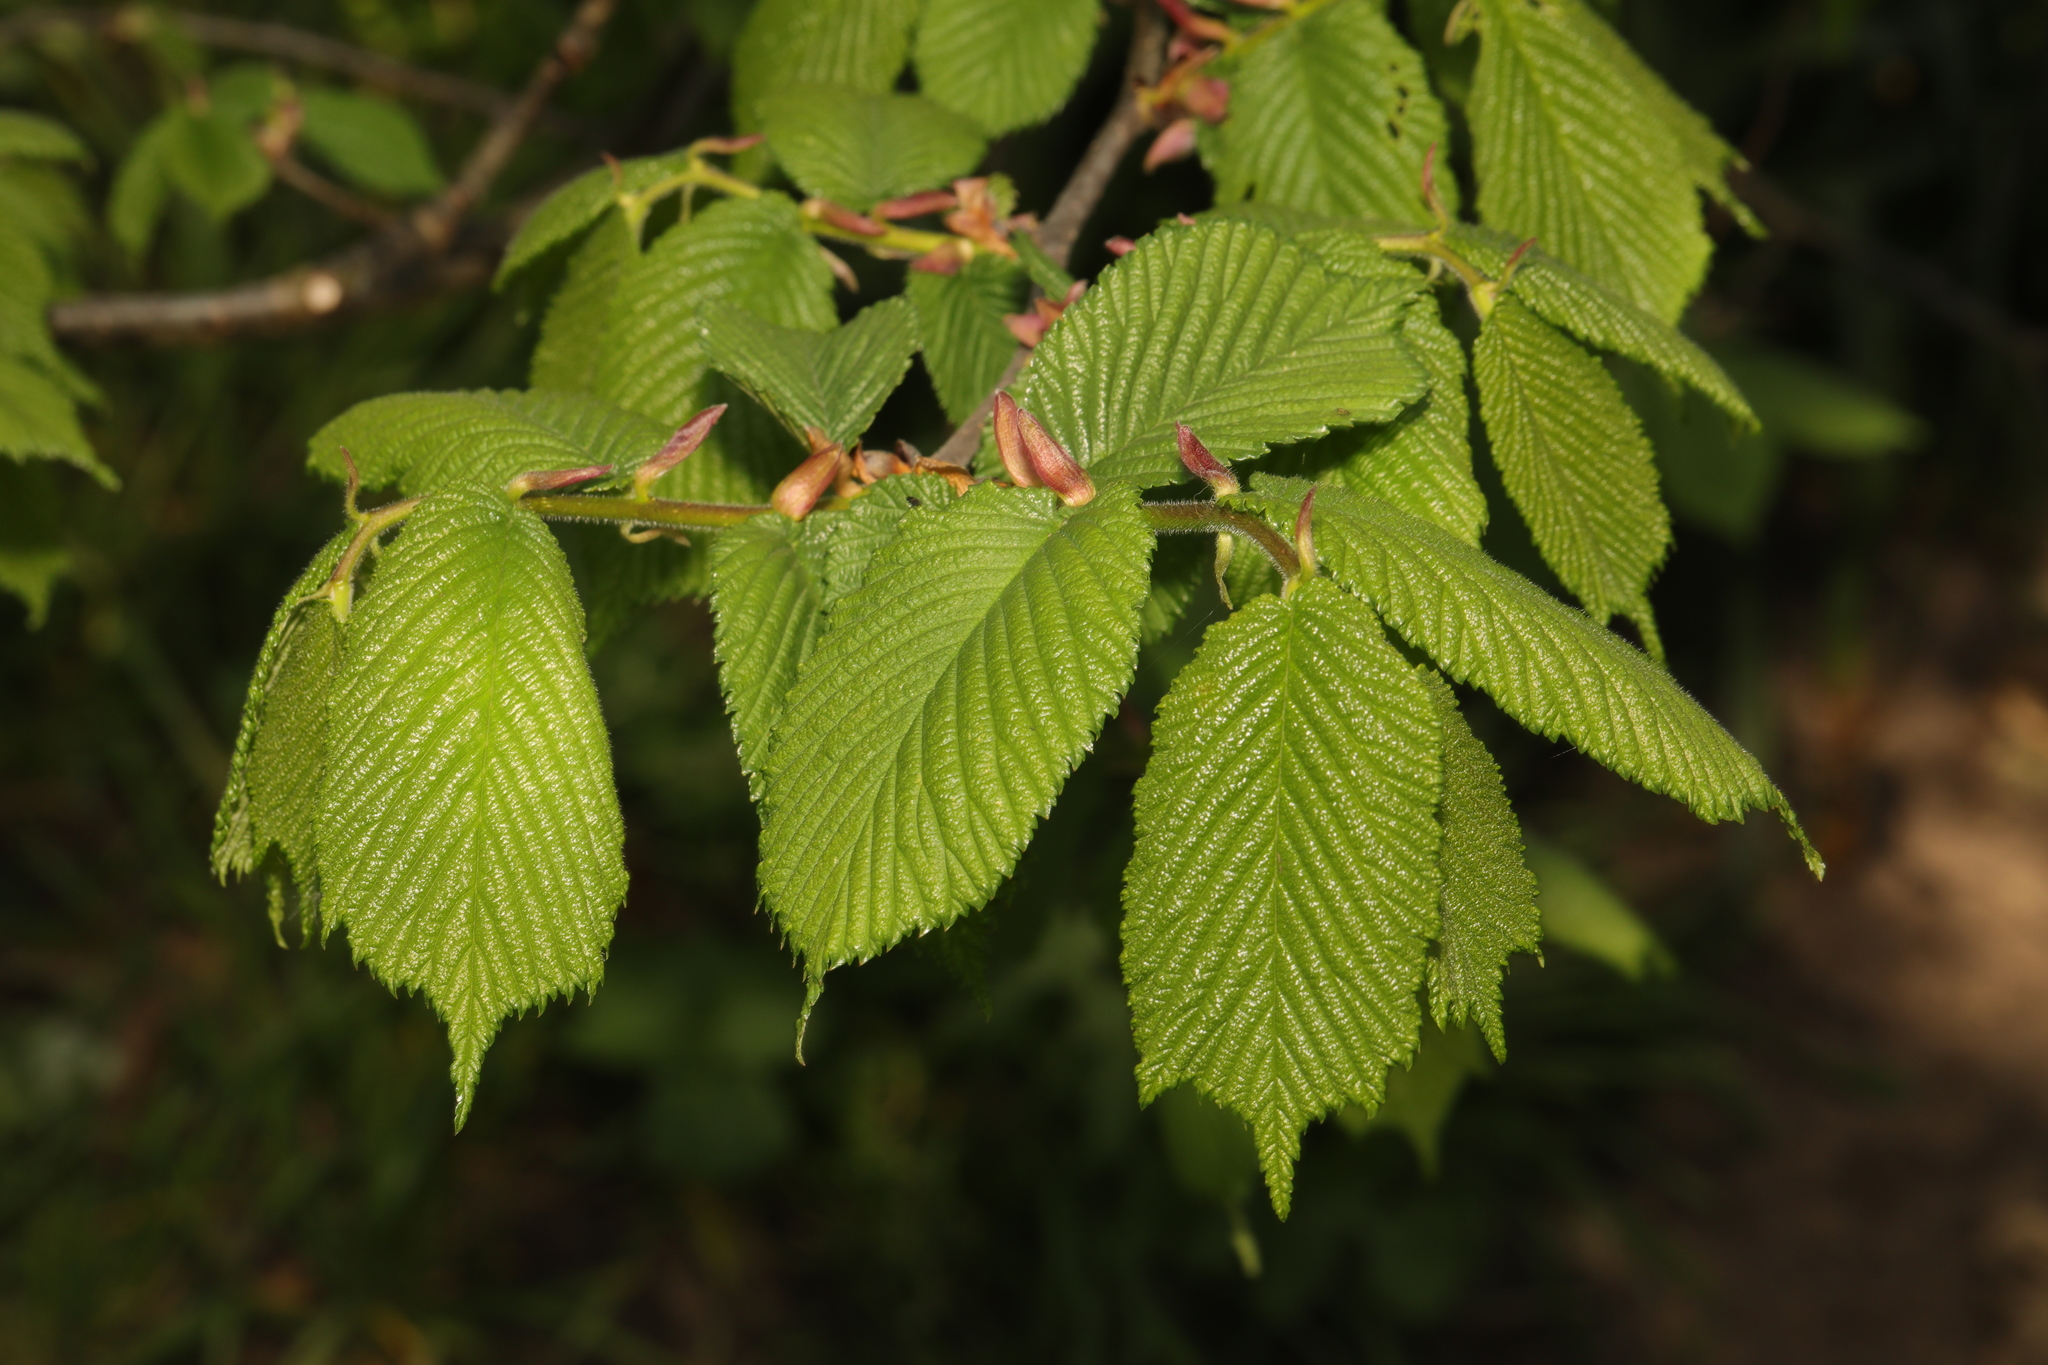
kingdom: Plantae
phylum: Tracheophyta
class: Magnoliopsida
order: Rosales
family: Ulmaceae
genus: Ulmus
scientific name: Ulmus glabra
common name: Wych elm
